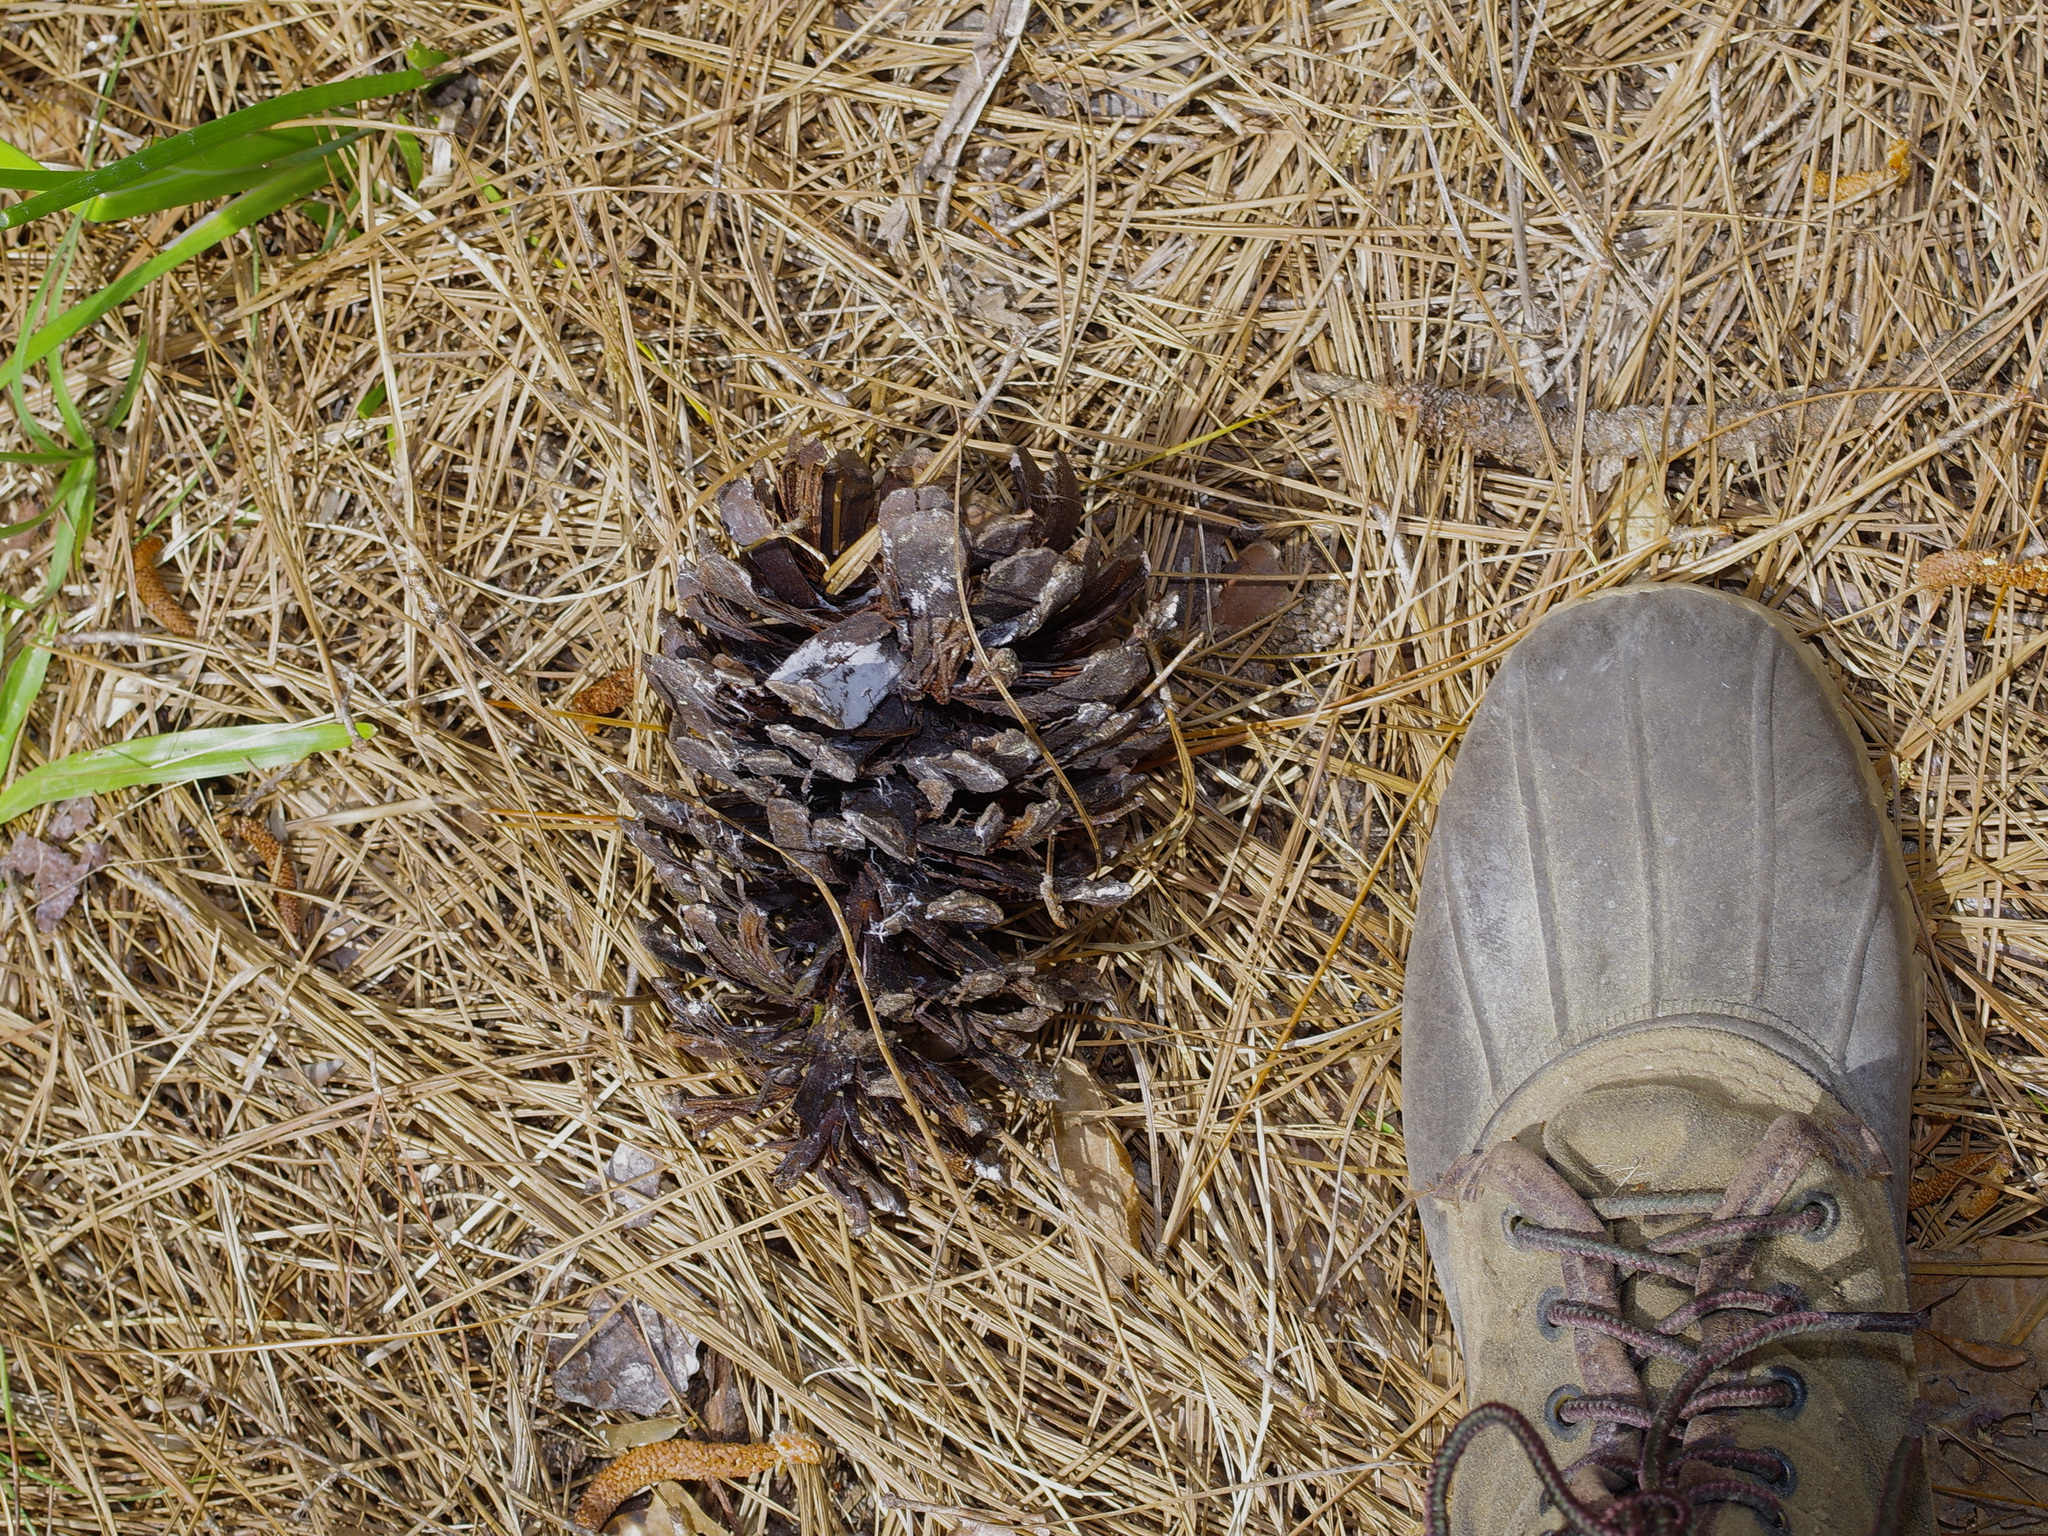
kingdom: Plantae
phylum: Tracheophyta
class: Pinopsida
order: Pinales
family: Pinaceae
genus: Pinus
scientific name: Pinus palustris
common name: Longleaf pine
